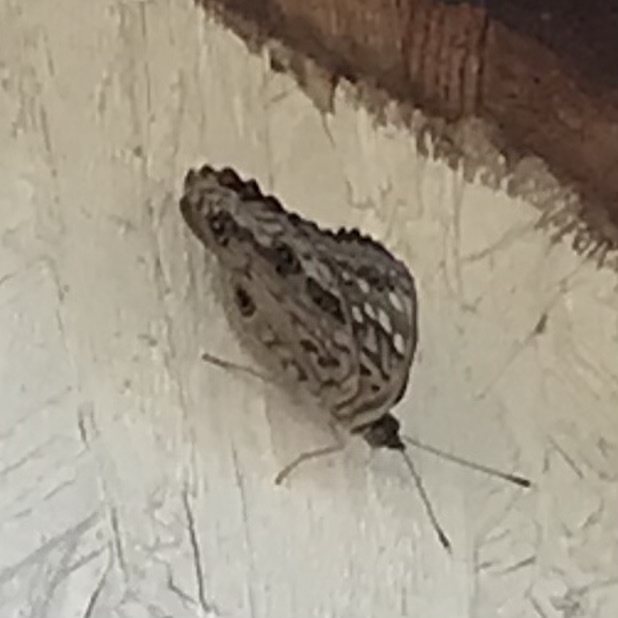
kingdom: Animalia
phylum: Arthropoda
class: Insecta
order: Lepidoptera
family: Nymphalidae
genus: Asterocampa
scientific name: Asterocampa celtis
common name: Hackberry emperor
